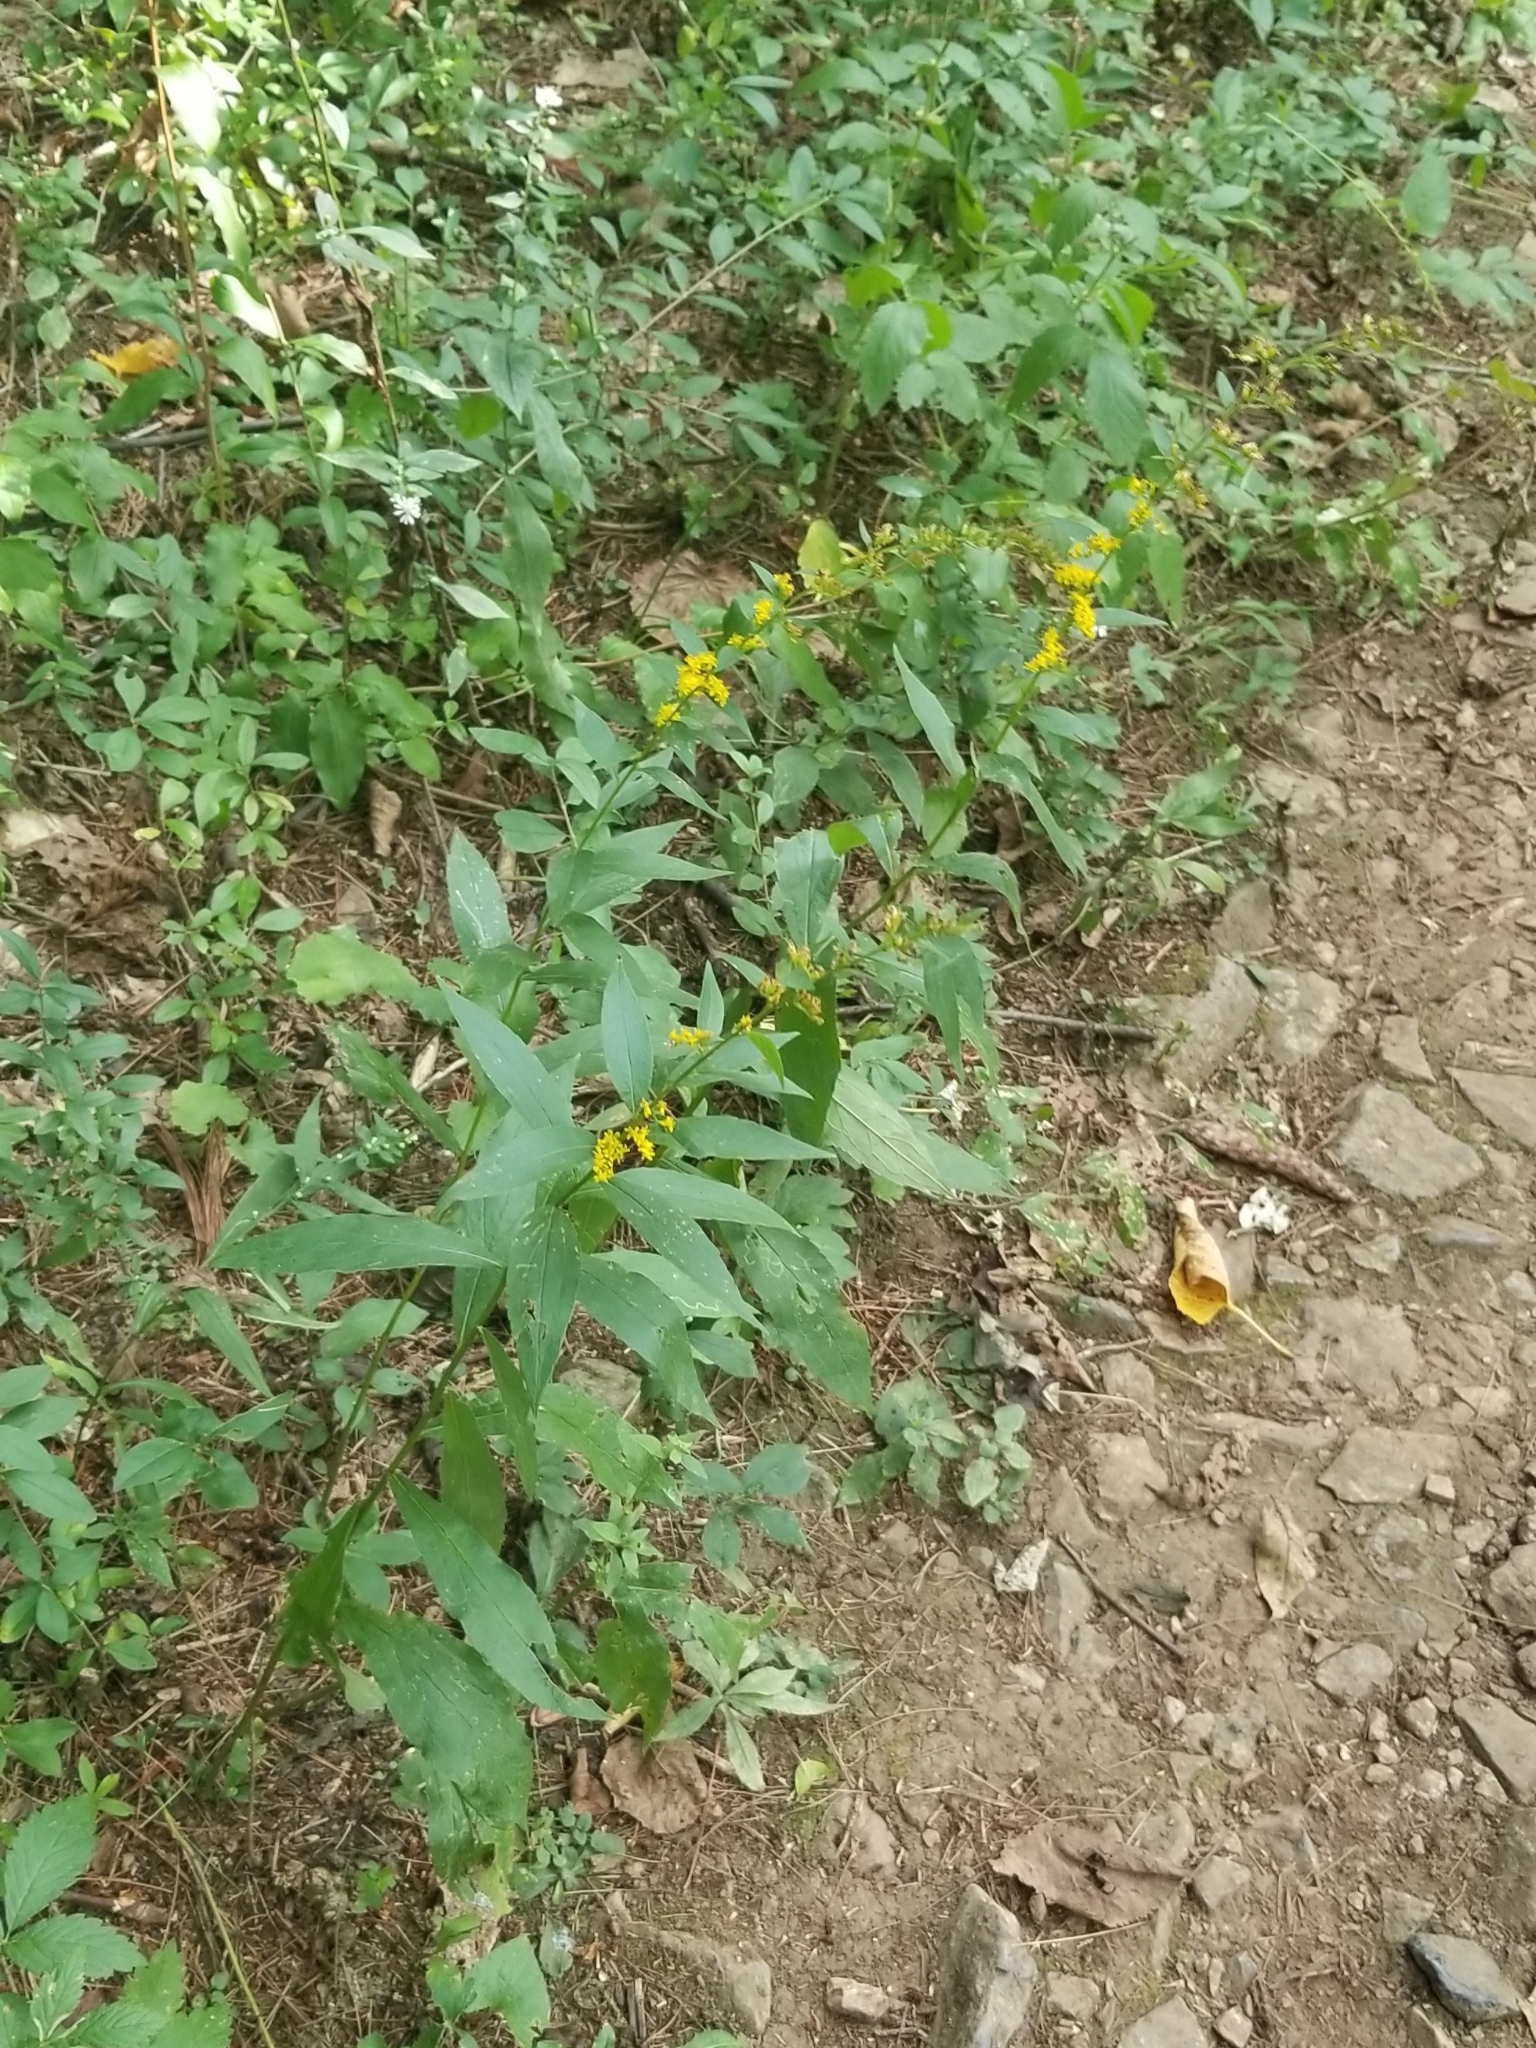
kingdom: Plantae
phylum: Tracheophyta
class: Magnoliopsida
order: Asterales
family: Asteraceae
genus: Solidago
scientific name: Solidago ulmifolia
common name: Elm-leaf goldenrod
